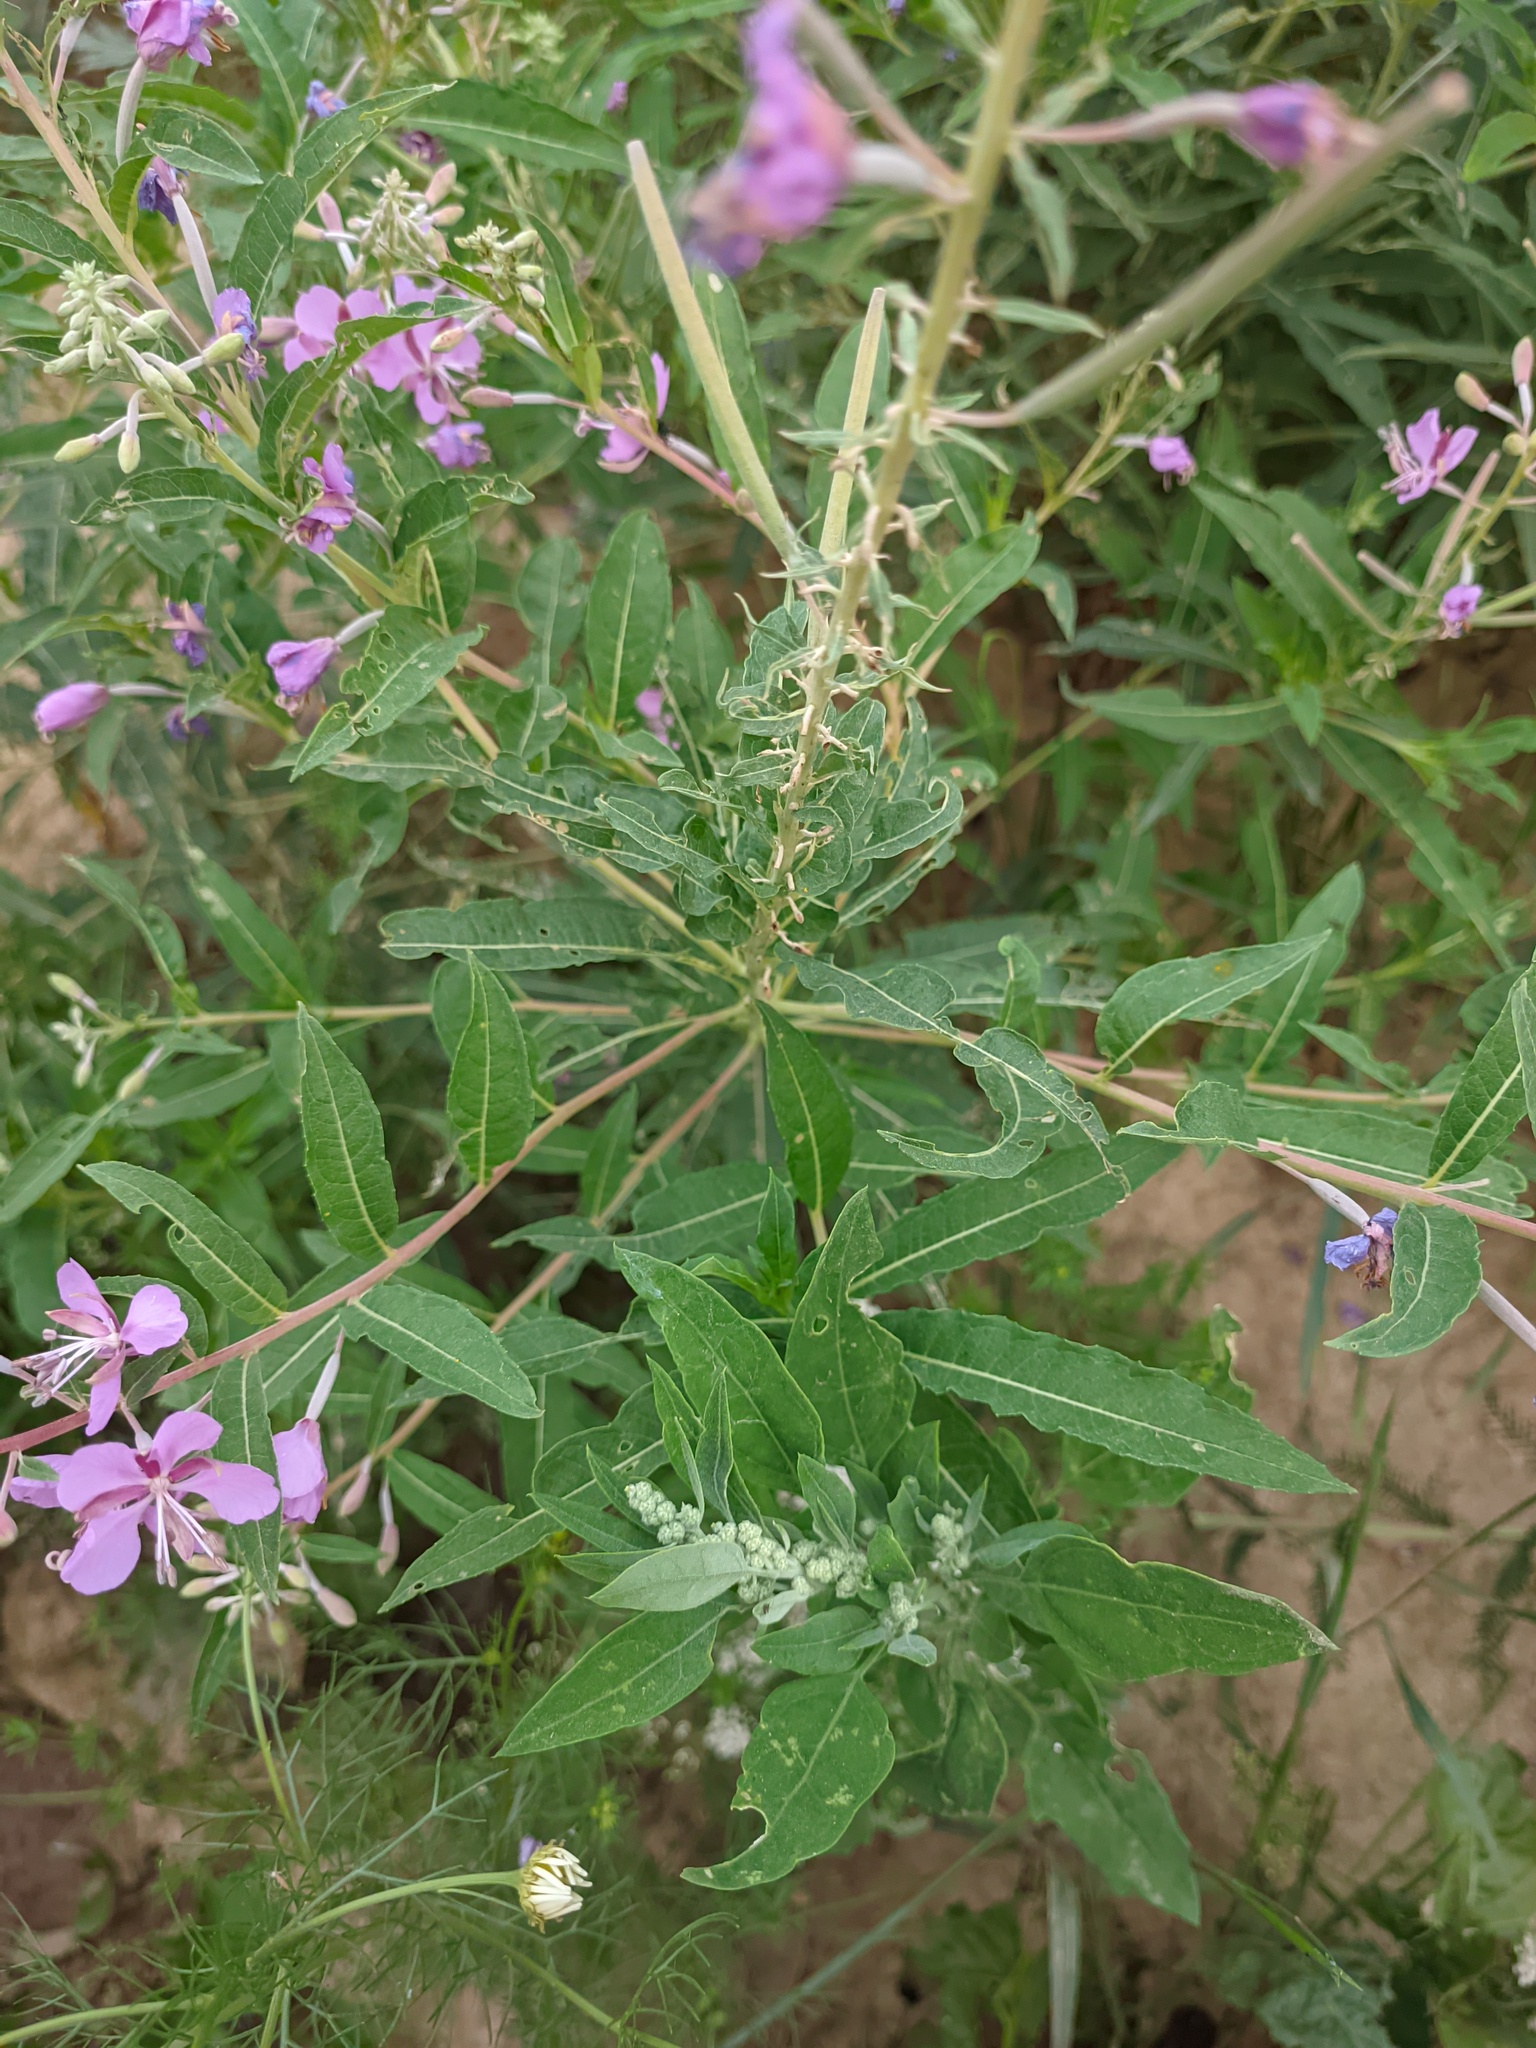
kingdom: Plantae
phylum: Tracheophyta
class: Magnoliopsida
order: Myrtales
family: Onagraceae
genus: Chamaenerion
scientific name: Chamaenerion angustifolium
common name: Fireweed
